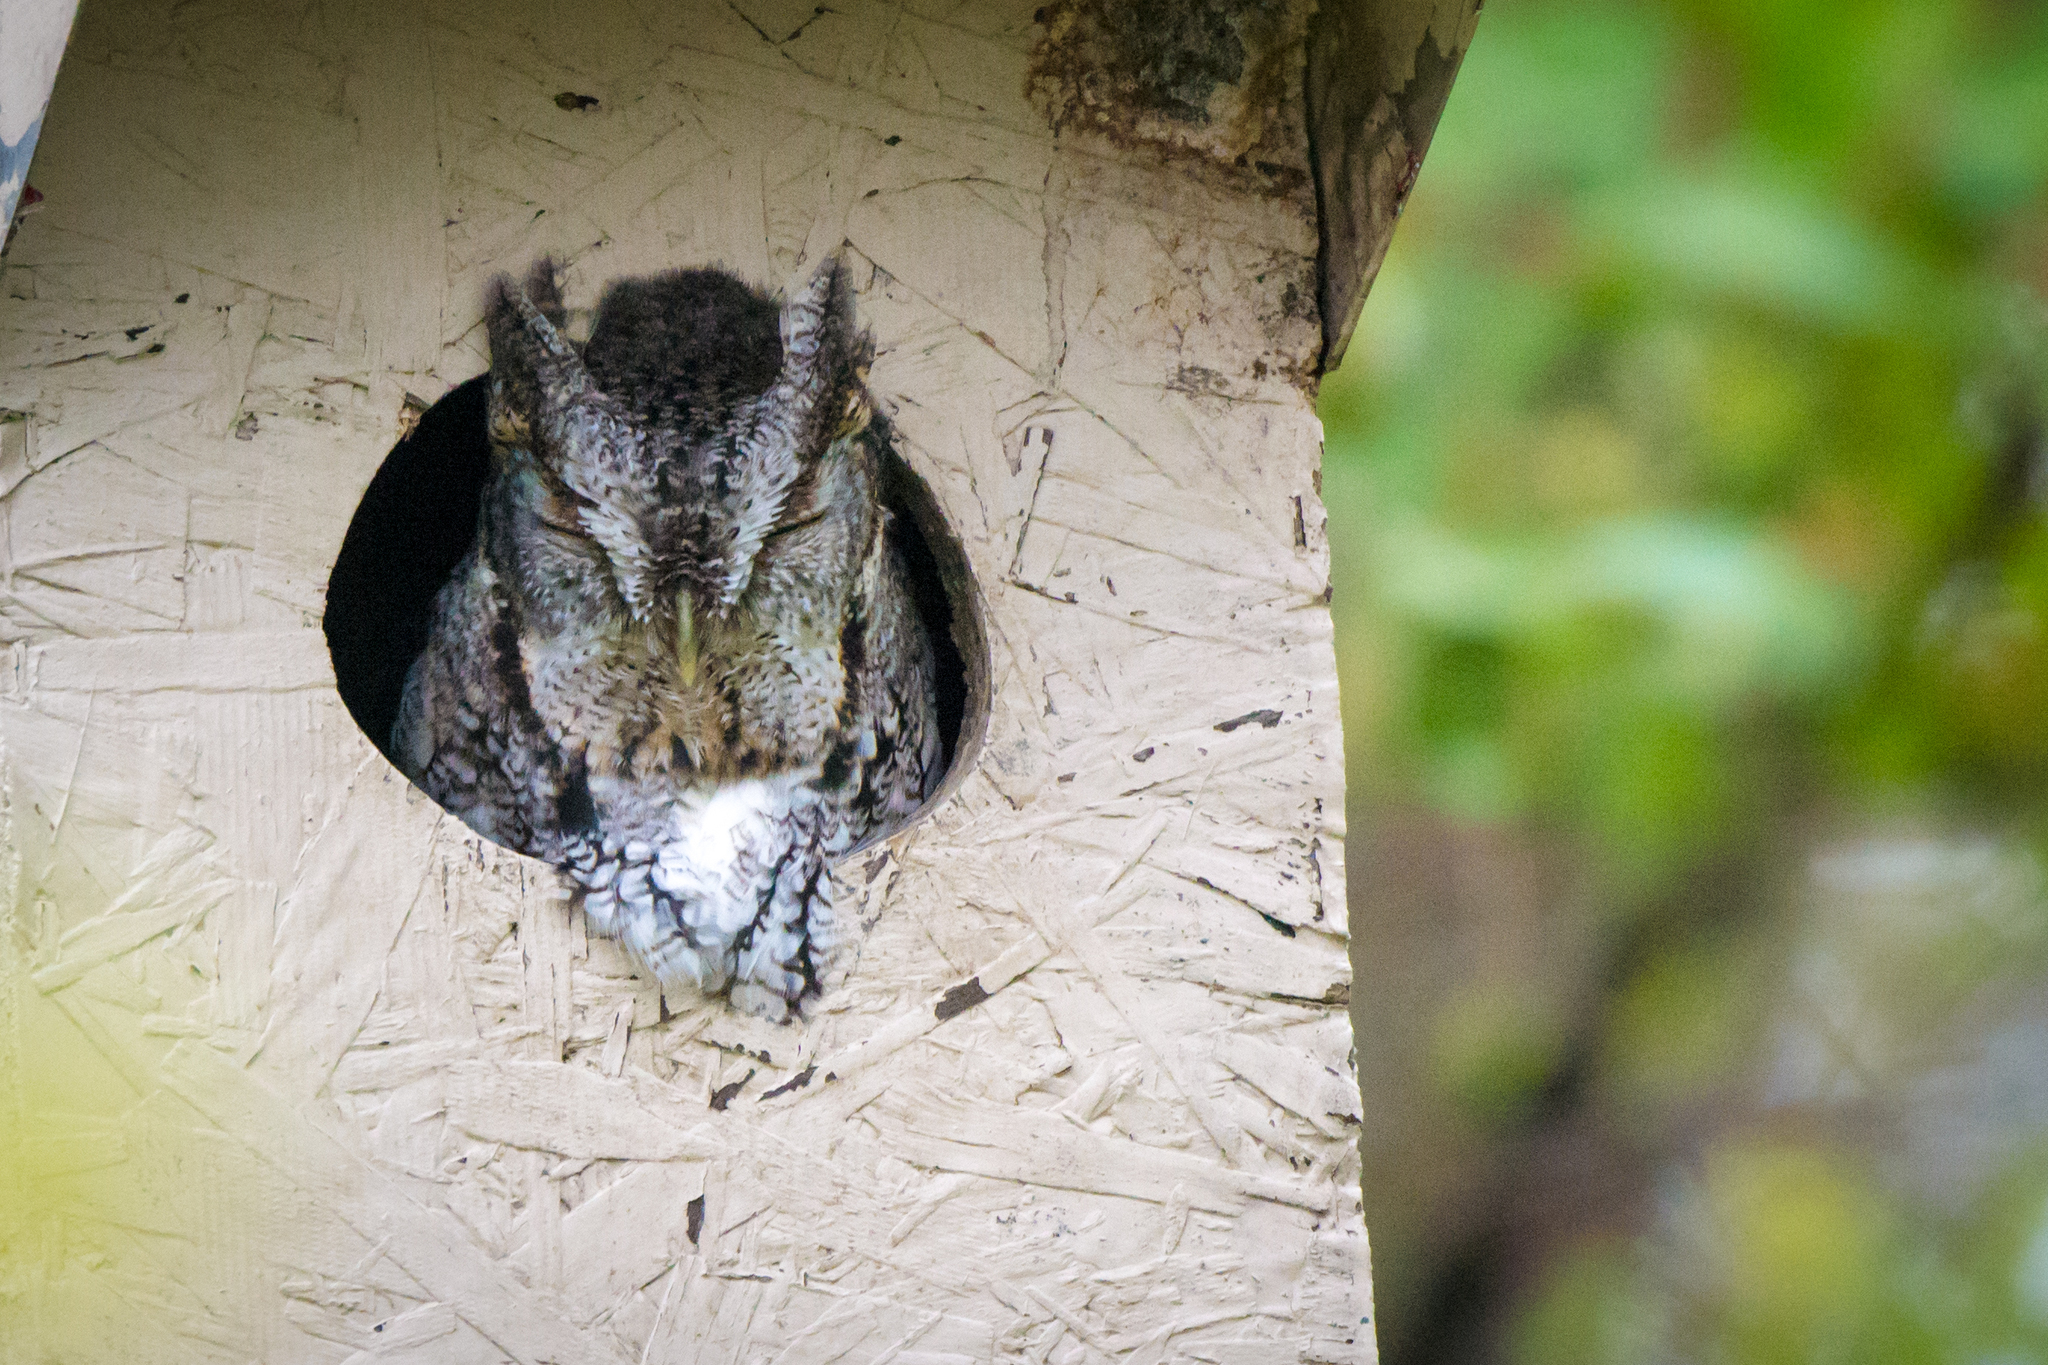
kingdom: Animalia
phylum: Chordata
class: Aves
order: Strigiformes
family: Strigidae
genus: Megascops
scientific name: Megascops asio
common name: Eastern screech-owl
